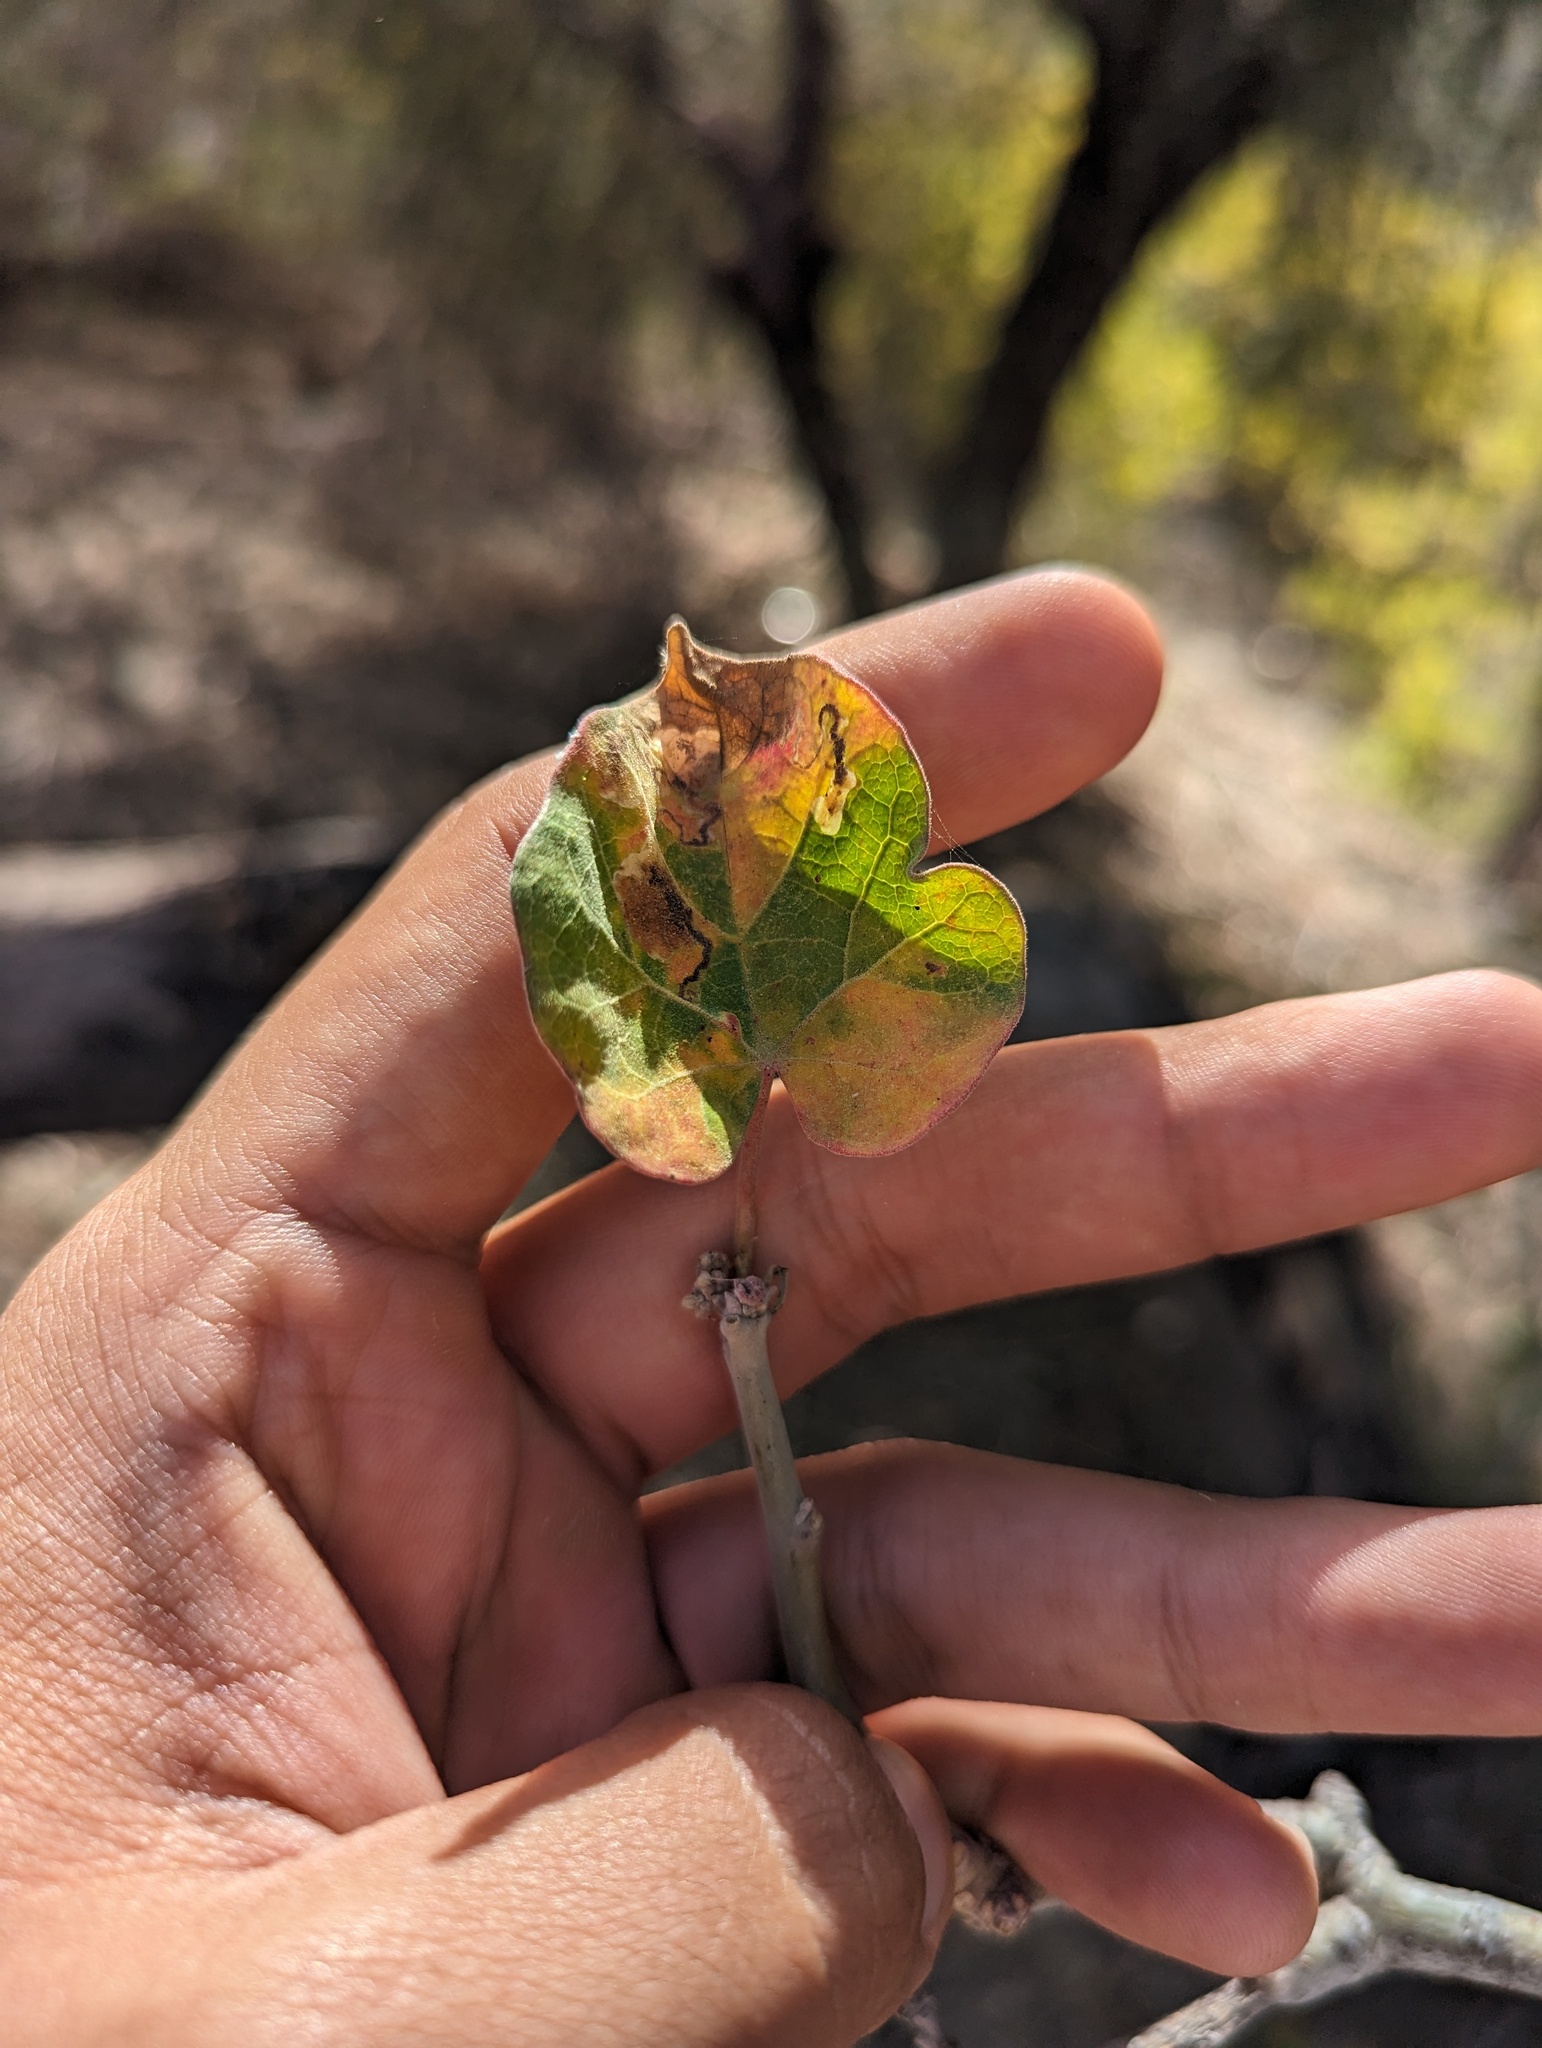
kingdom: Plantae
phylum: Tracheophyta
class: Magnoliopsida
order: Malpighiales
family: Euphorbiaceae
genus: Jatropha
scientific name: Jatropha cinerea
